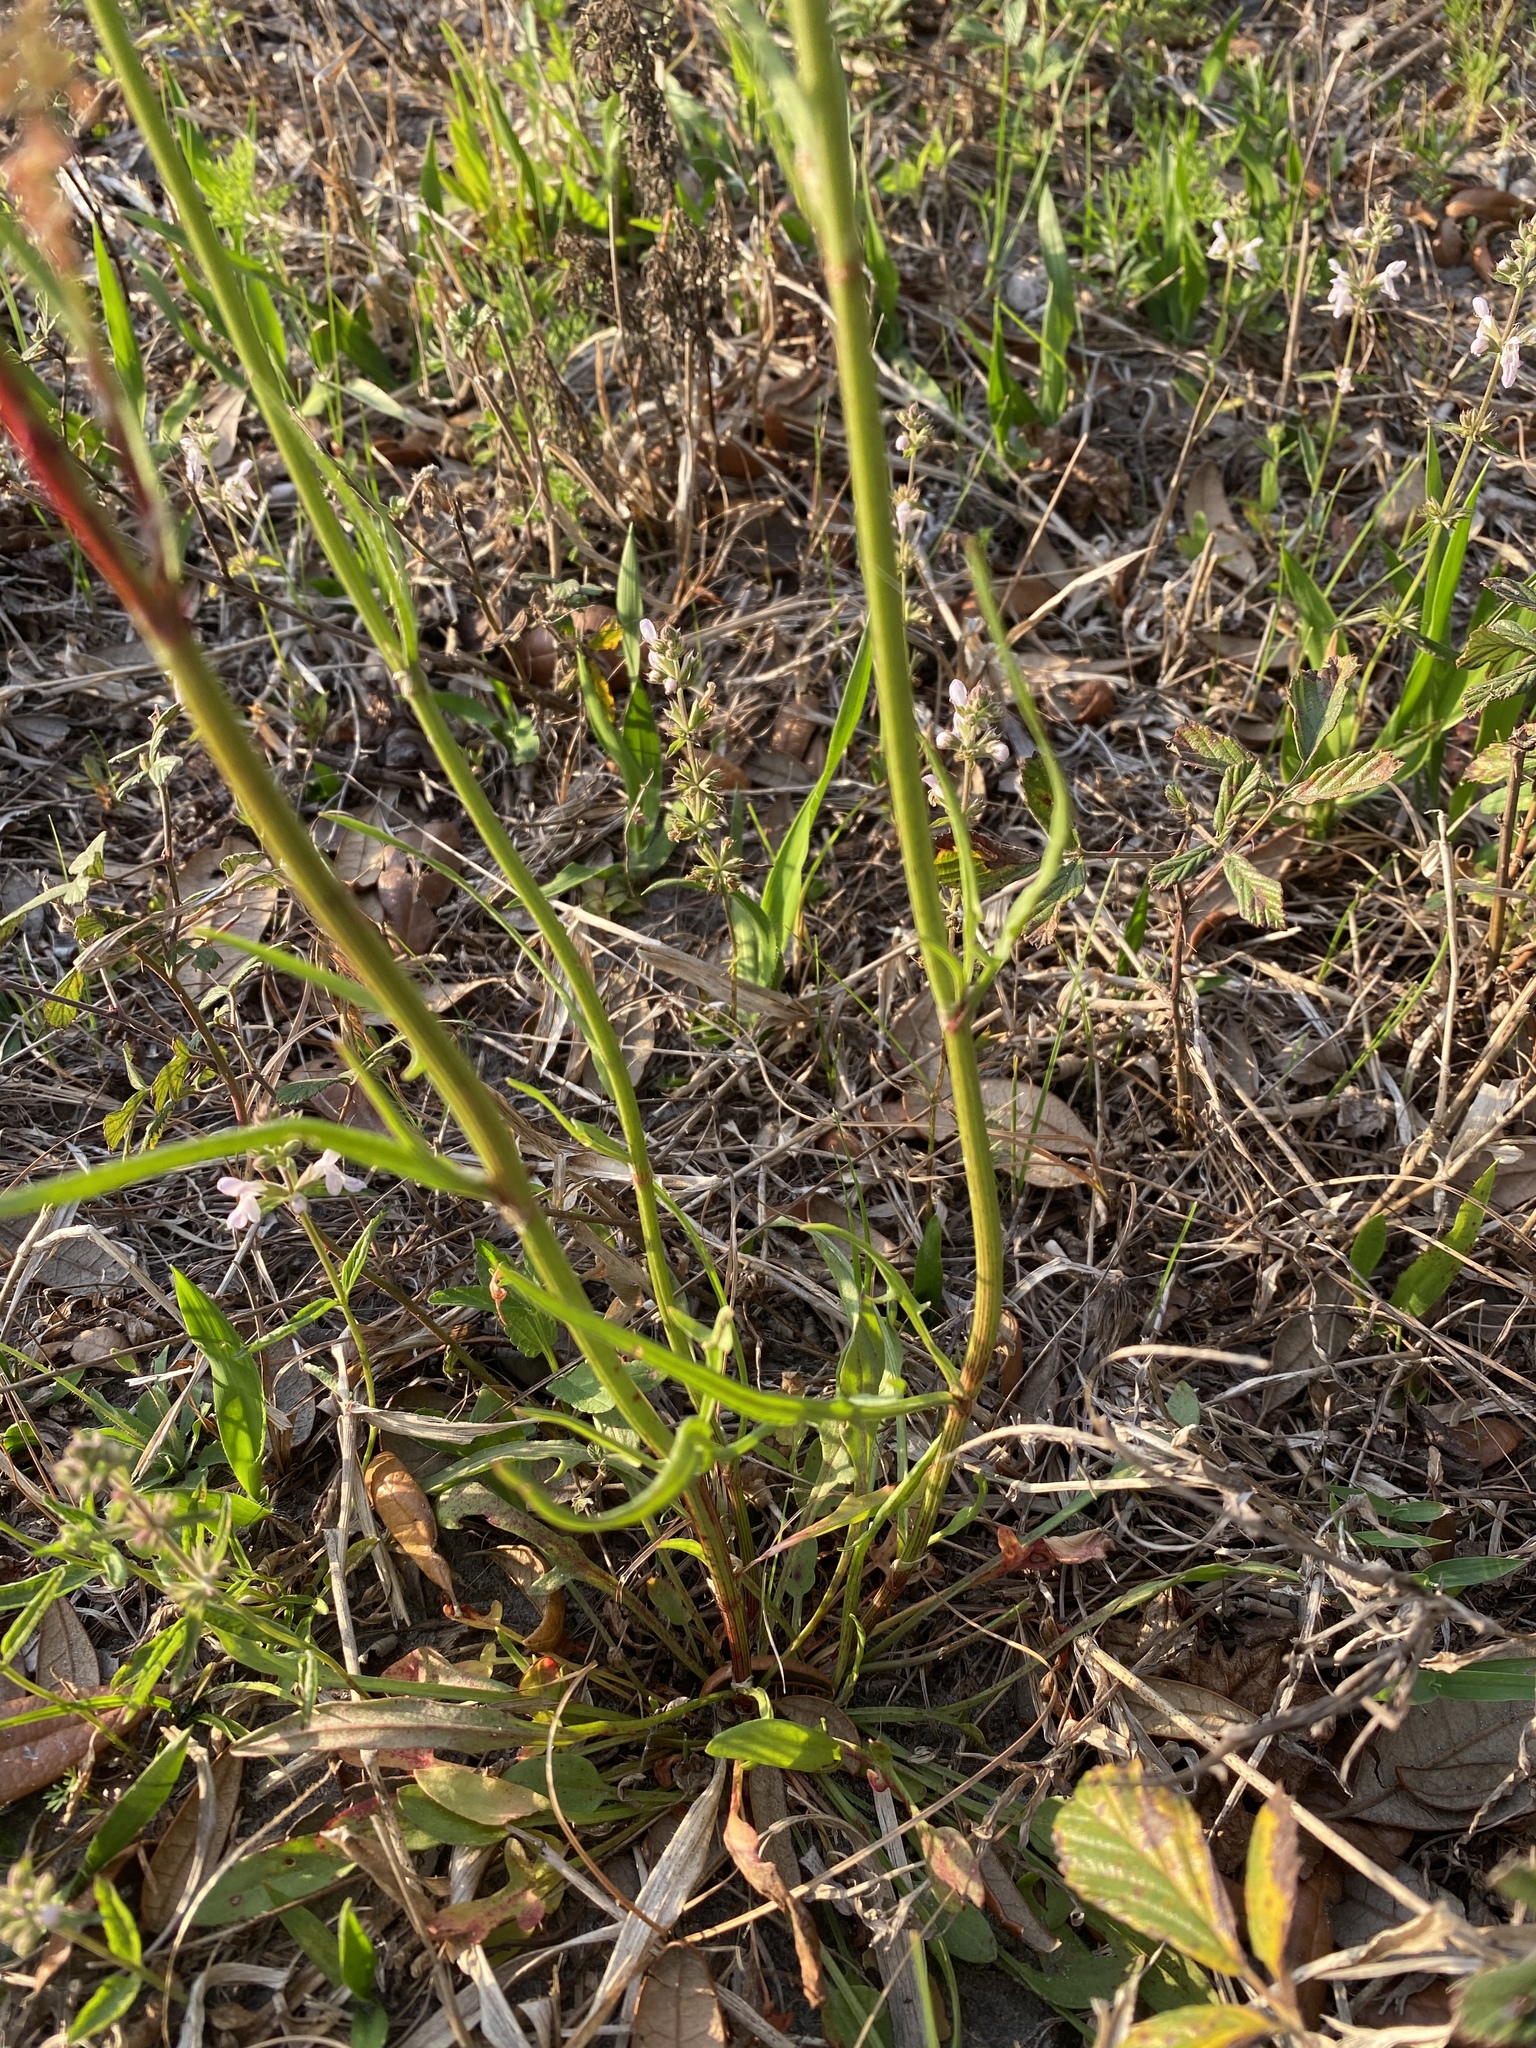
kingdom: Plantae
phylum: Tracheophyta
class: Magnoliopsida
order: Caryophyllales
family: Polygonaceae
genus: Rumex
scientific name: Rumex hastatulus
